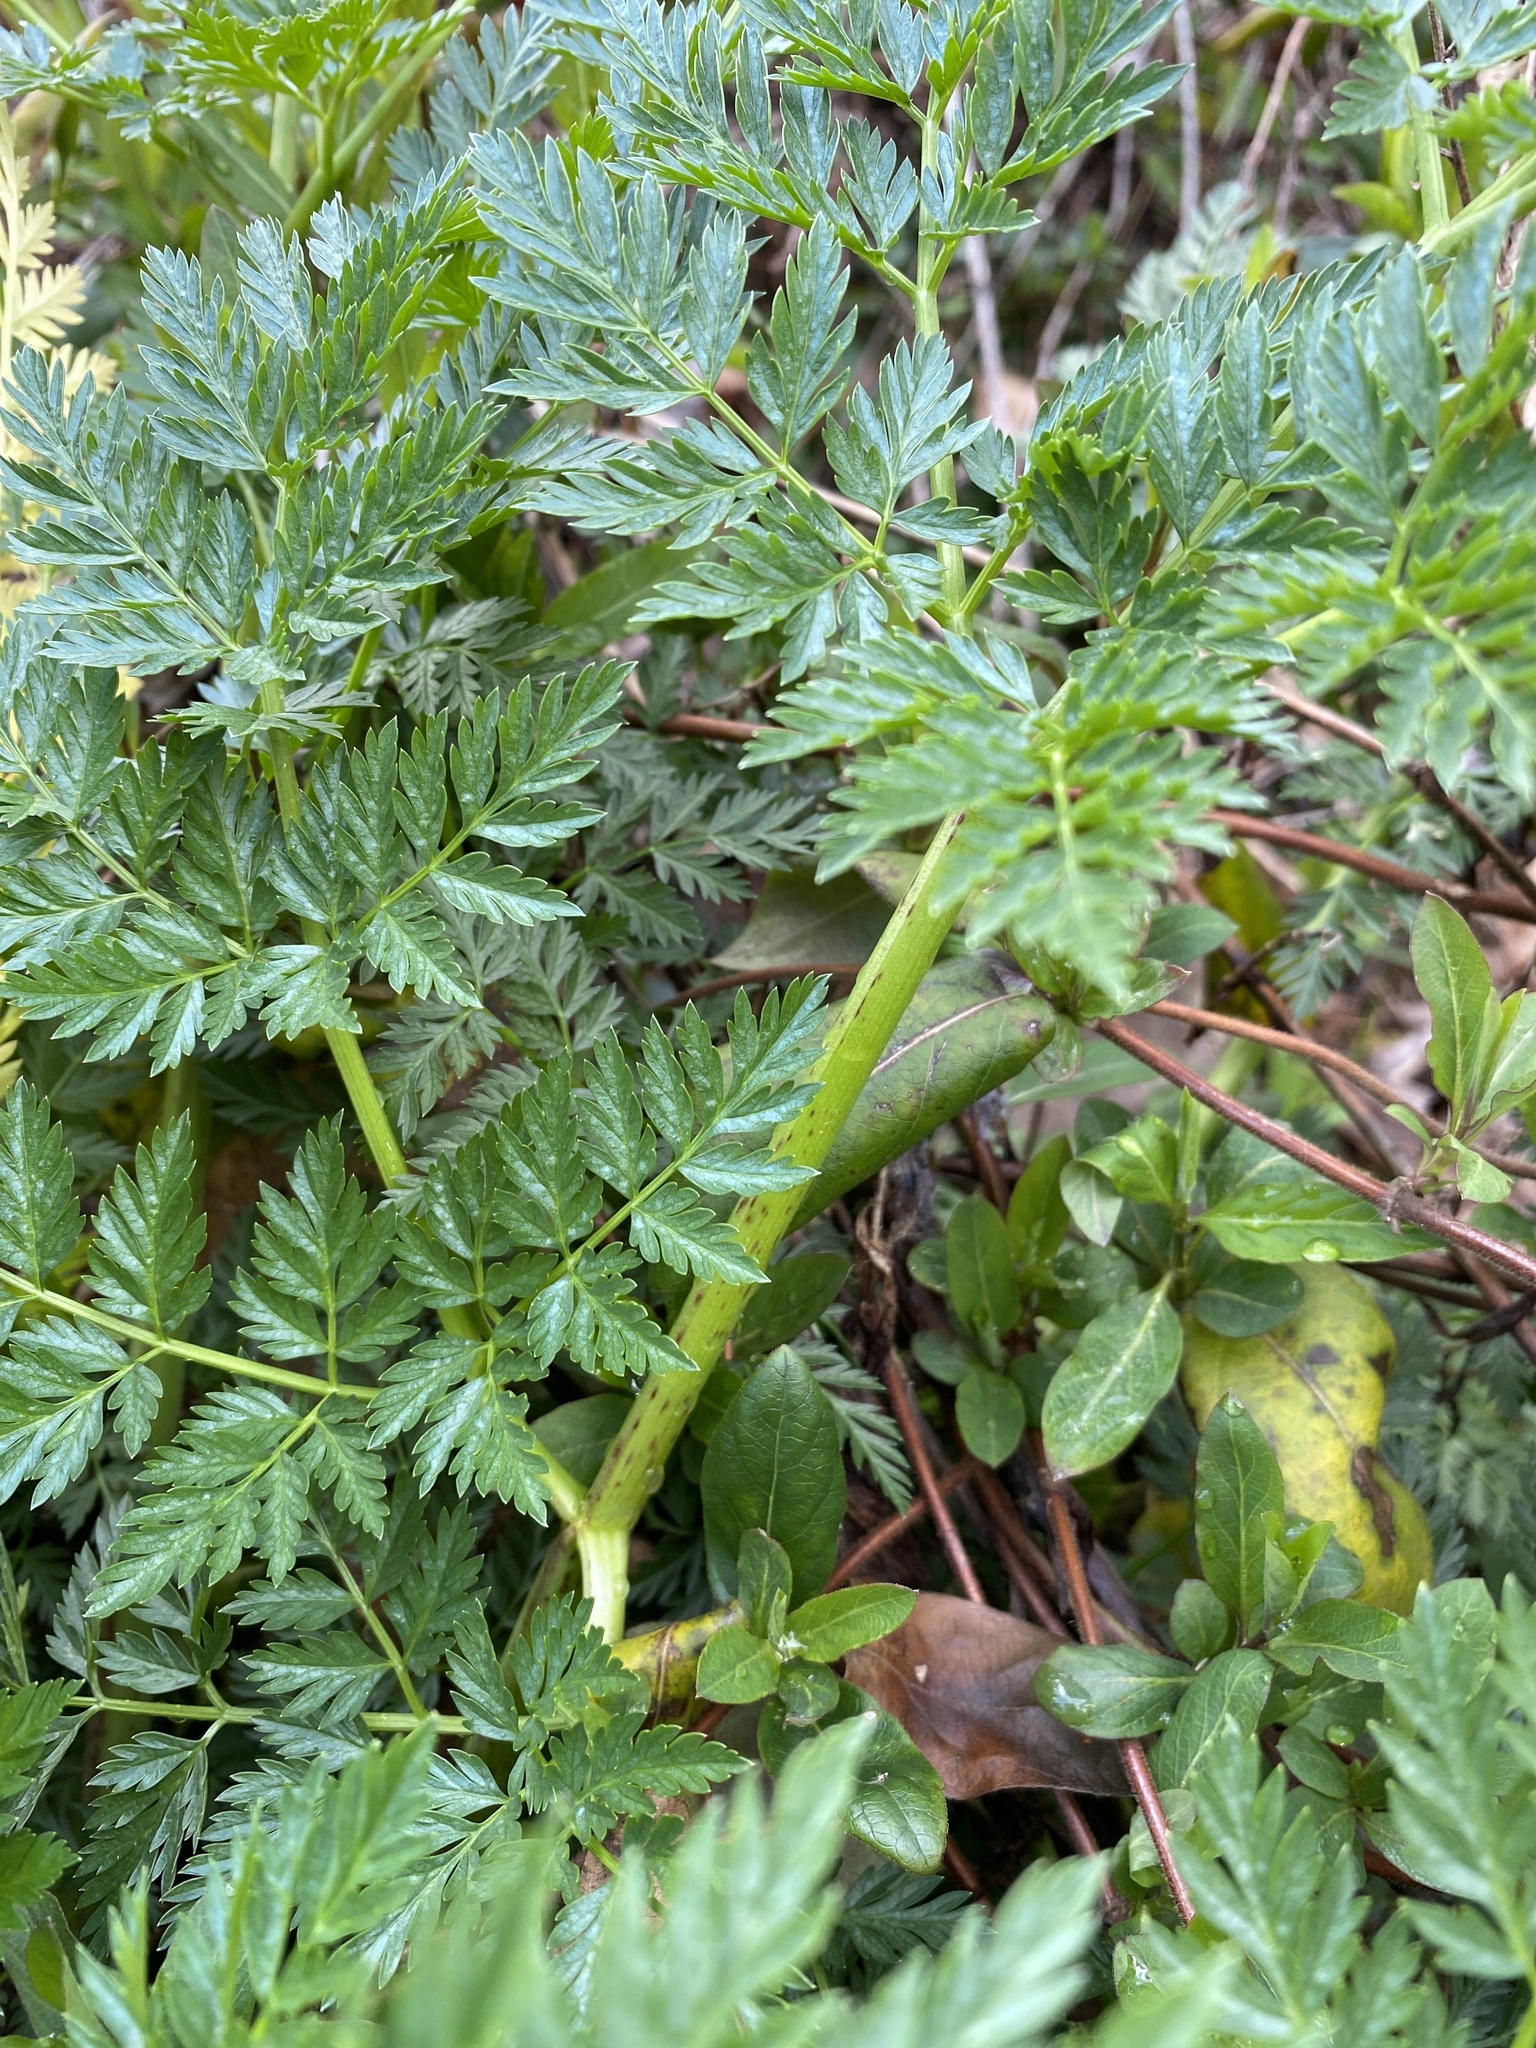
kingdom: Plantae
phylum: Tracheophyta
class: Magnoliopsida
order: Apiales
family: Apiaceae
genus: Conium
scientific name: Conium maculatum
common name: Hemlock
